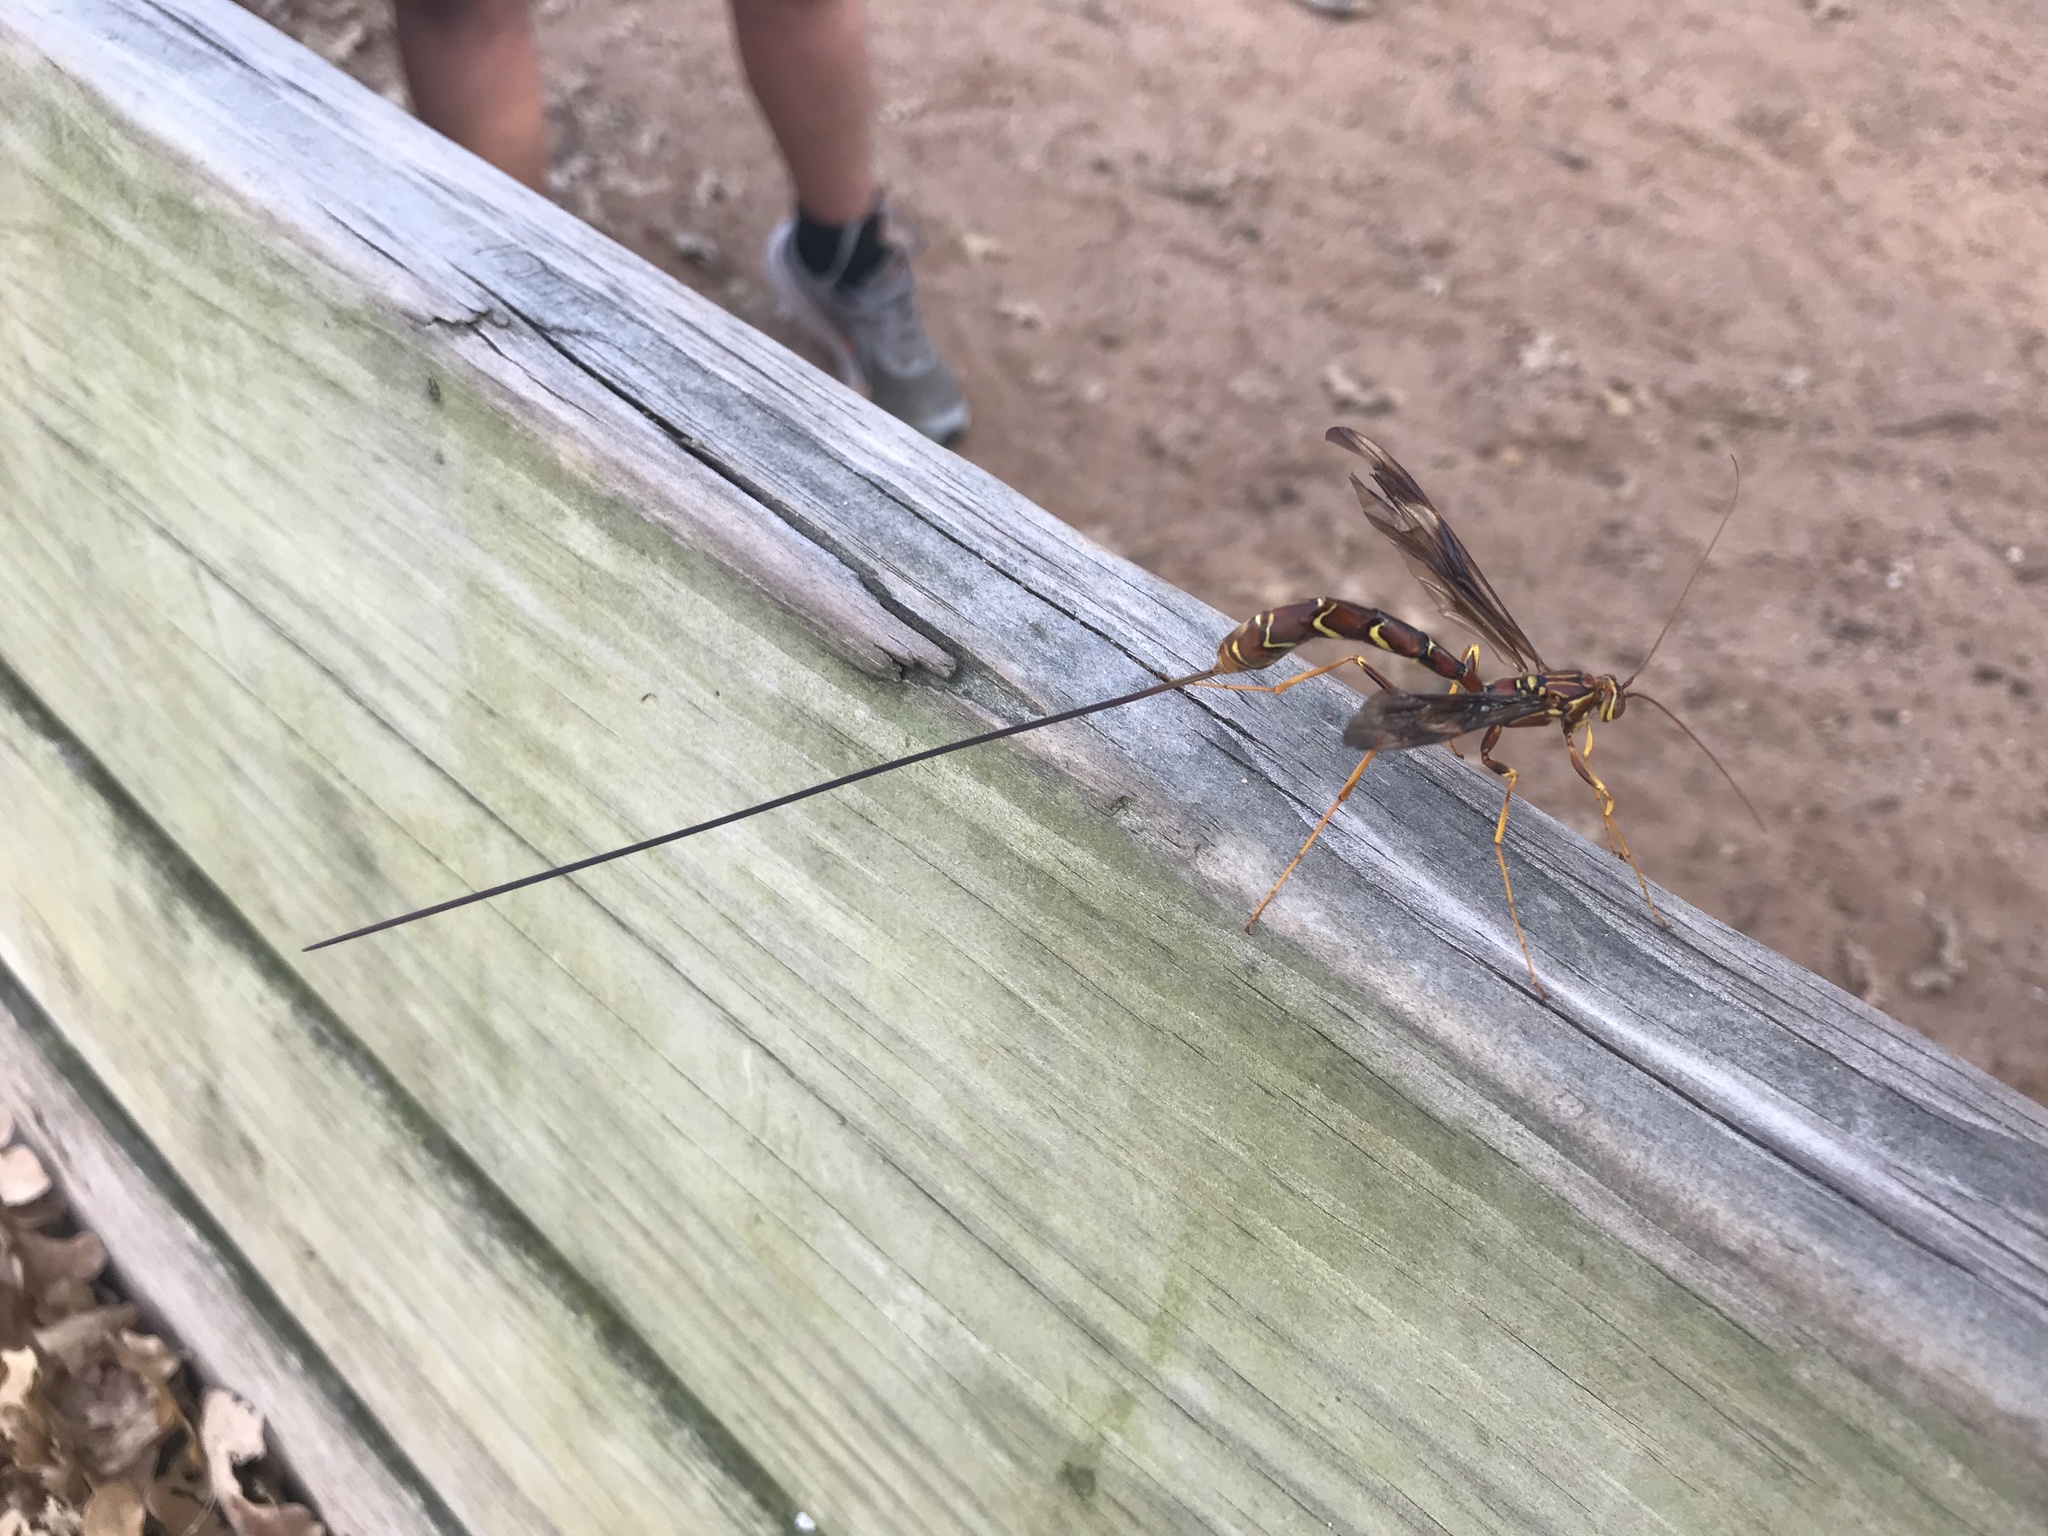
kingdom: Animalia
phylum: Arthropoda
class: Insecta
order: Hymenoptera
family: Ichneumonidae
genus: Megarhyssa
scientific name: Megarhyssa macrura
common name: Long-tailed giant ichneumonid wasp
